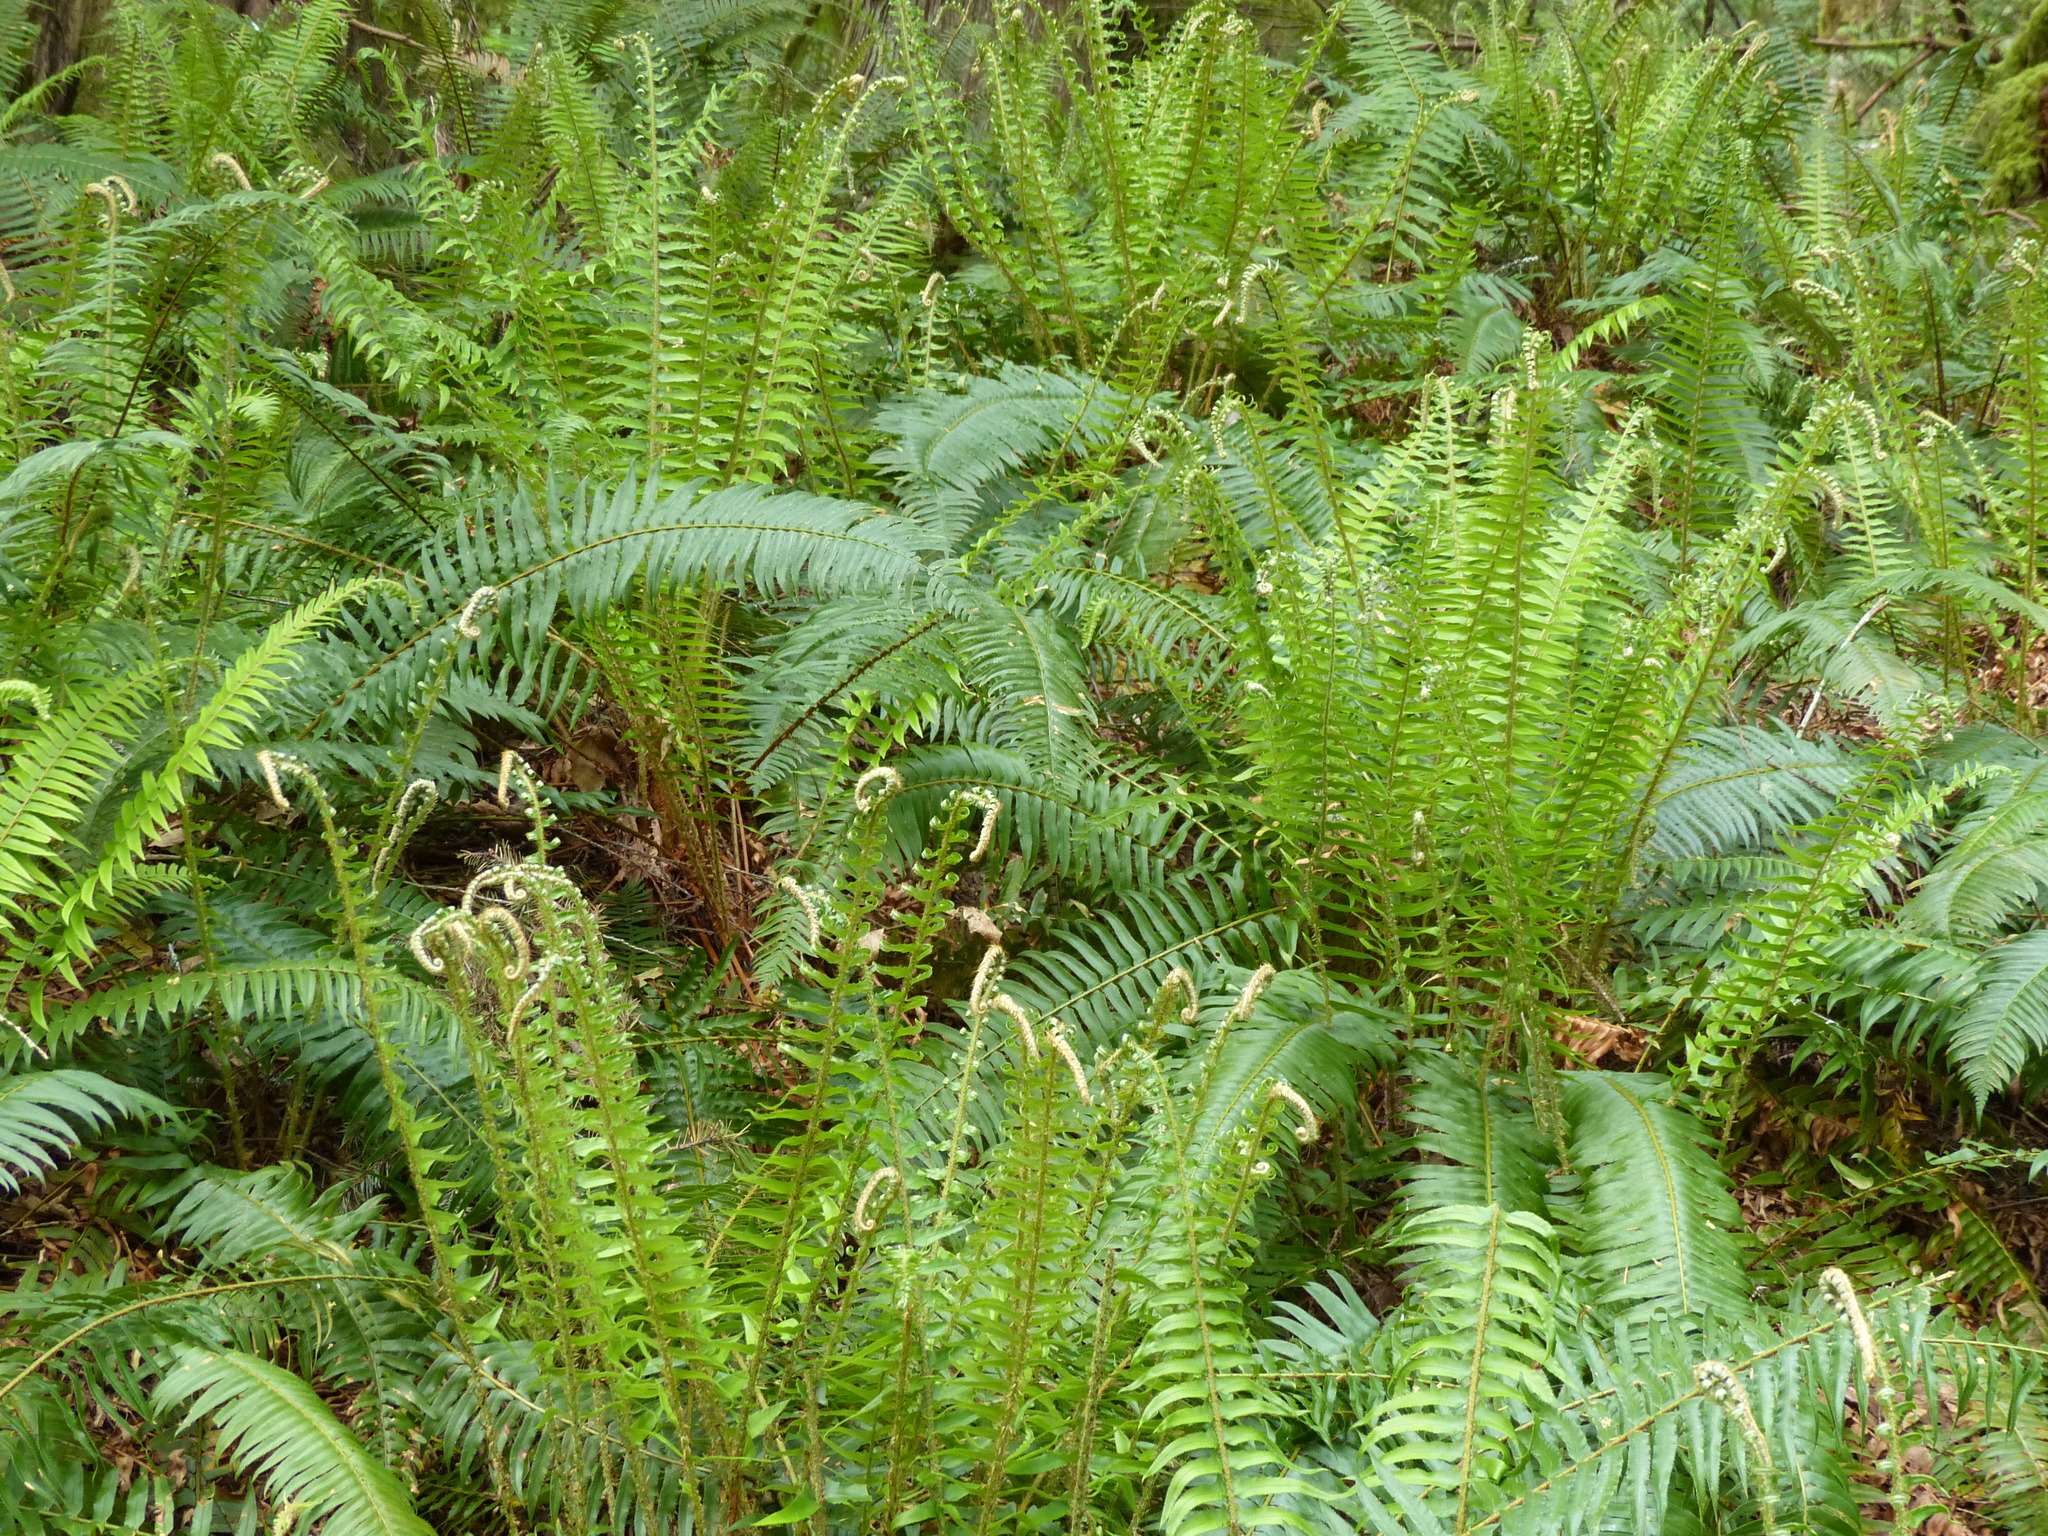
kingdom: Plantae
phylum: Tracheophyta
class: Polypodiopsida
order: Polypodiales
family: Dryopteridaceae
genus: Polystichum
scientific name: Polystichum munitum
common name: Western sword-fern
